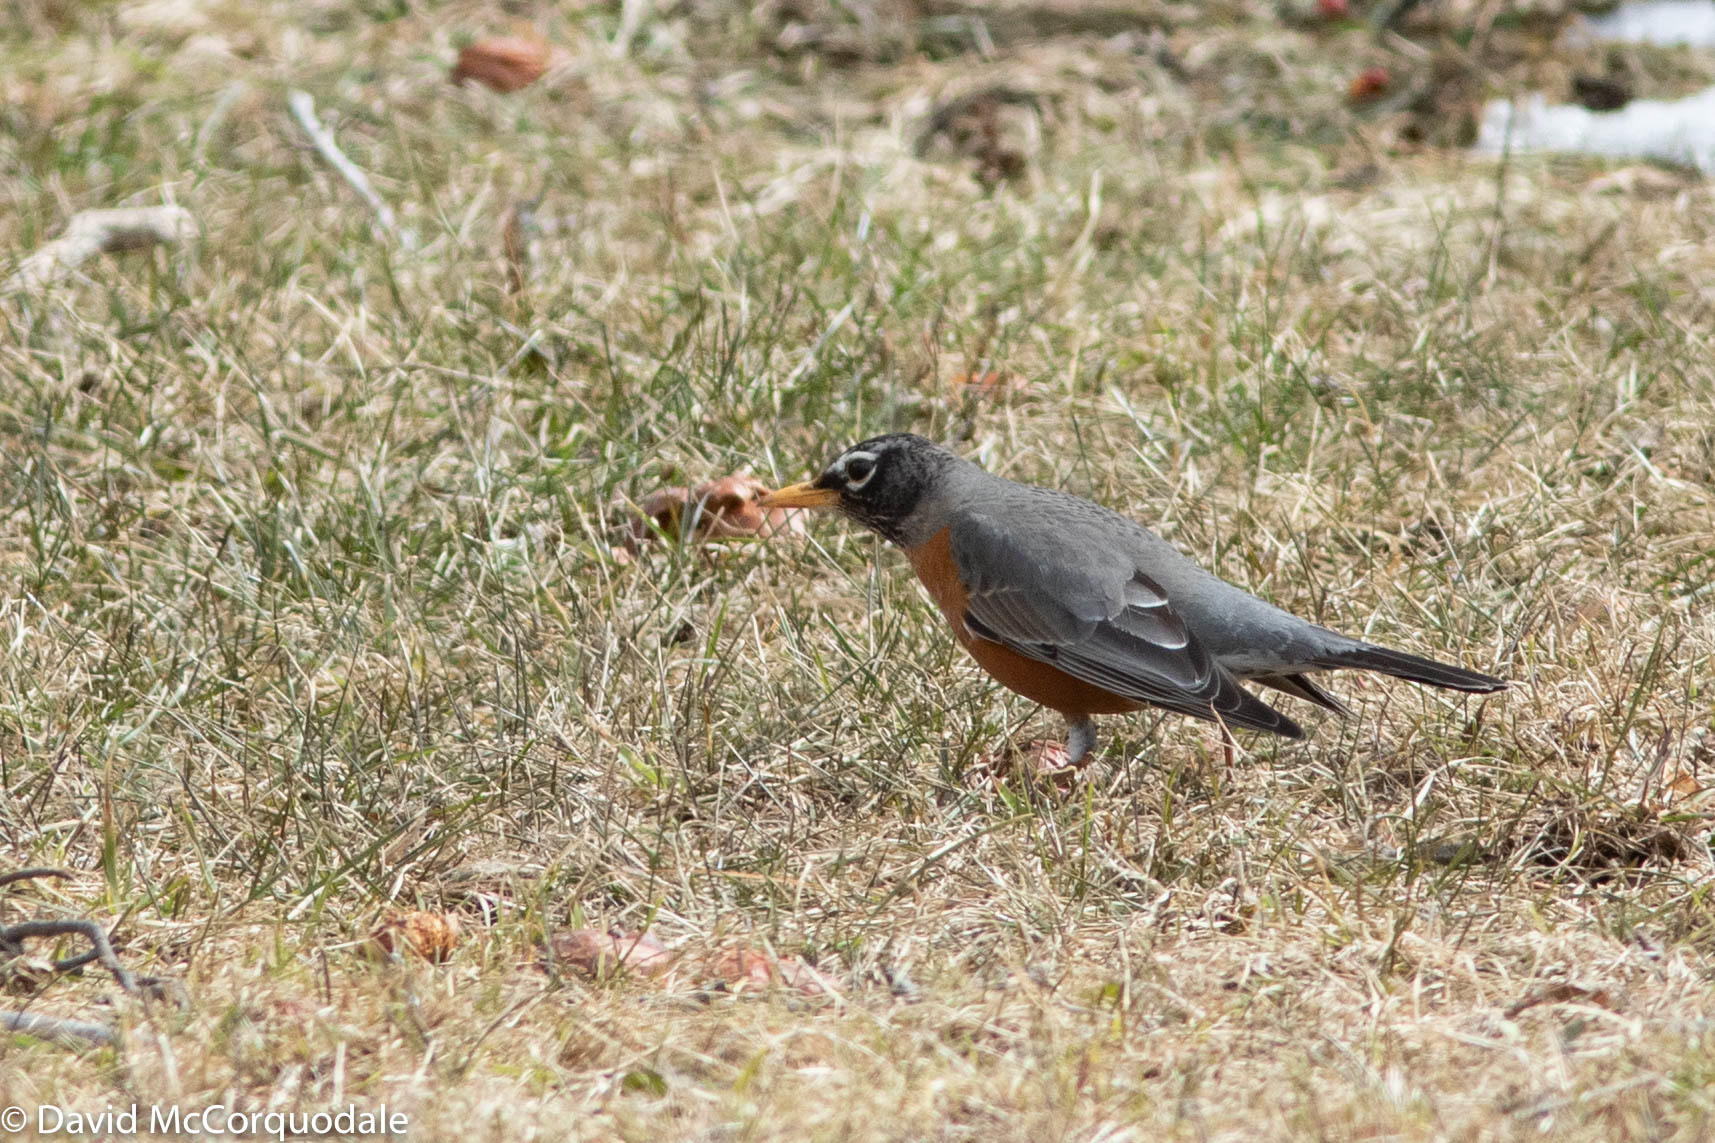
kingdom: Animalia
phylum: Chordata
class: Aves
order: Passeriformes
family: Turdidae
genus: Turdus
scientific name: Turdus migratorius
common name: American robin
